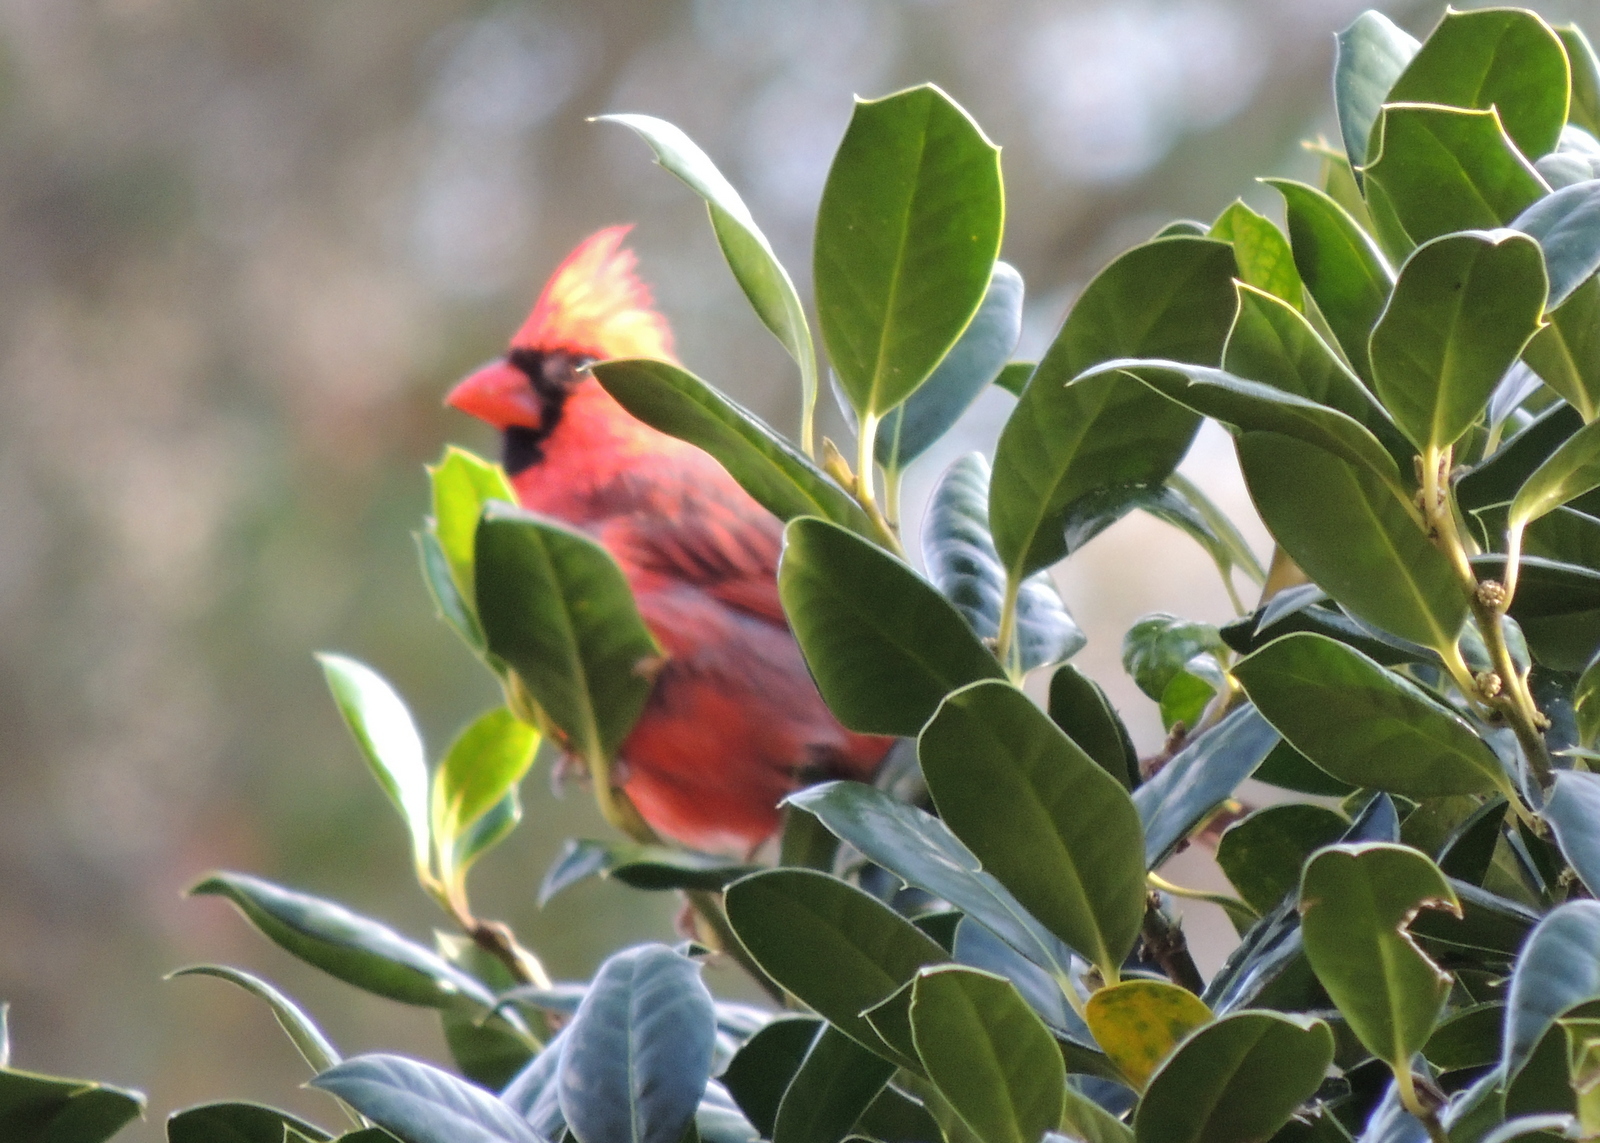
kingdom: Animalia
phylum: Chordata
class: Aves
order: Passeriformes
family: Cardinalidae
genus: Cardinalis
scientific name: Cardinalis cardinalis
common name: Northern cardinal
